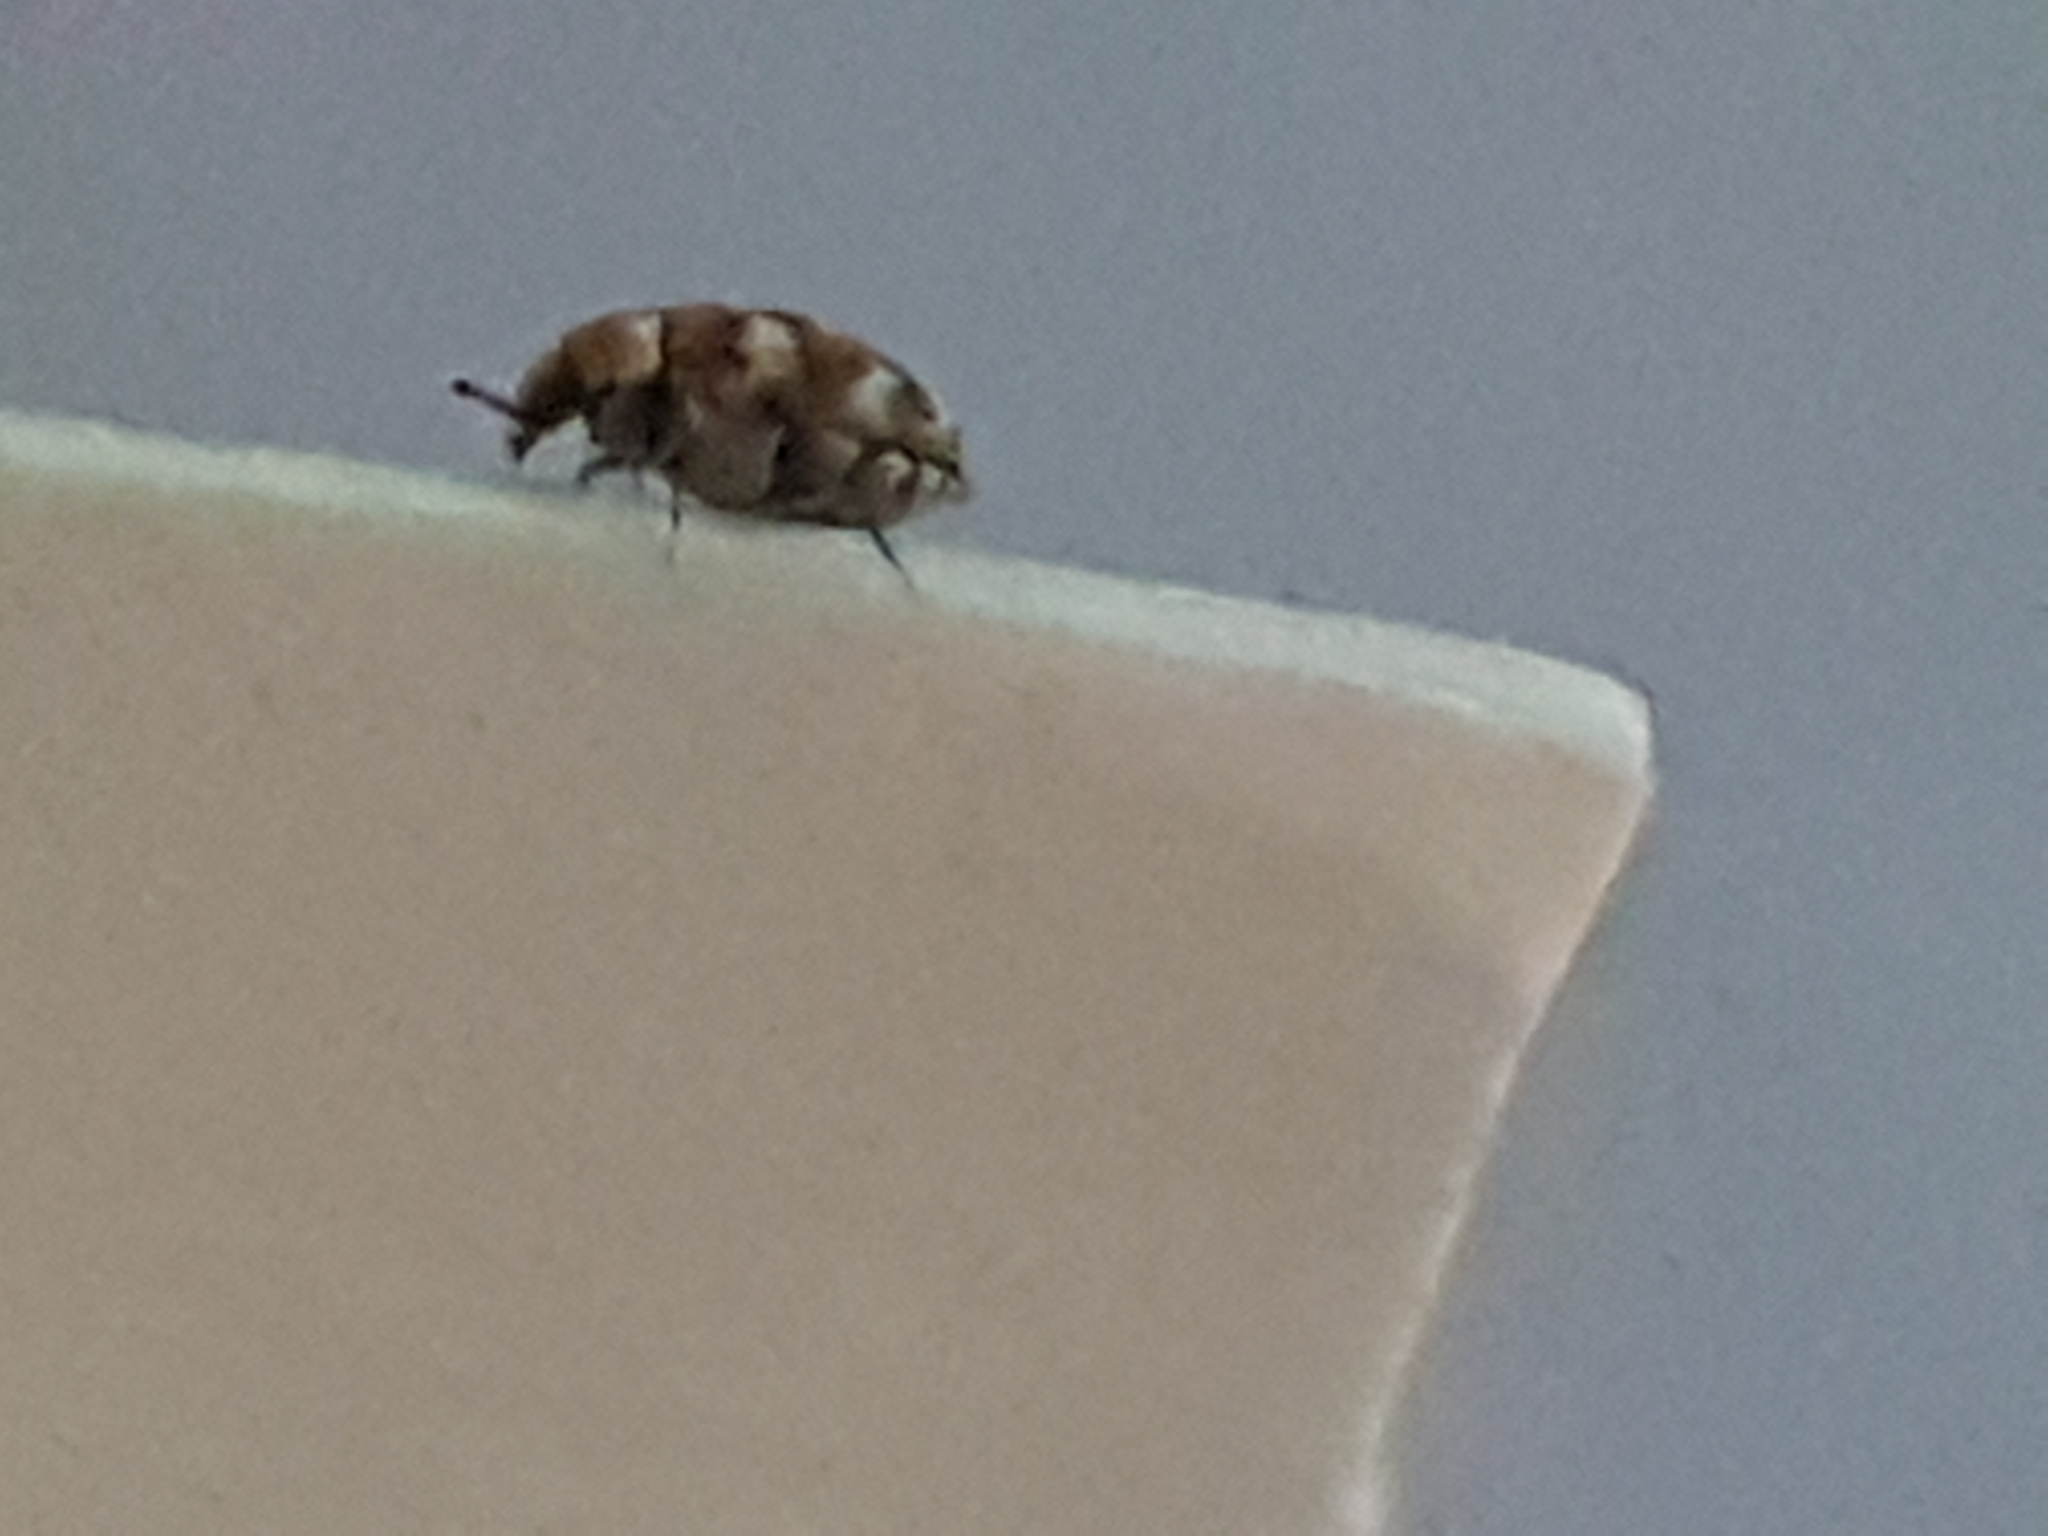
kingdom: Animalia
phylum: Arthropoda
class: Insecta
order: Coleoptera
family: Dermestidae
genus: Anthrenus
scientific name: Anthrenus verbasci
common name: Varied carpet beetle
